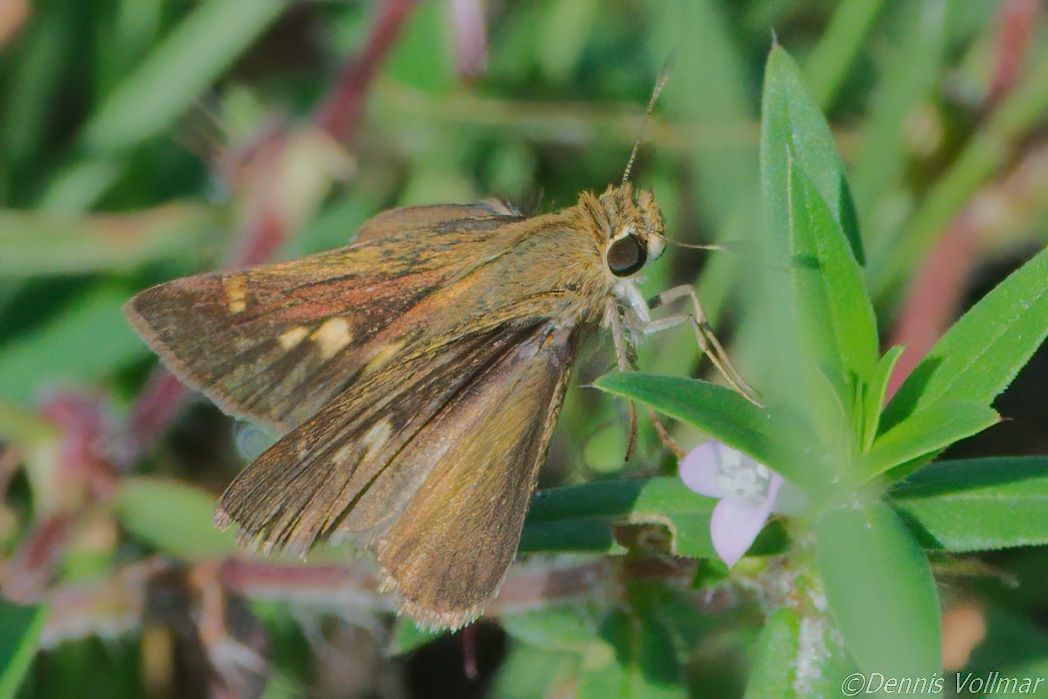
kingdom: Animalia
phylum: Arthropoda
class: Insecta
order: Lepidoptera
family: Hesperiidae
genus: Polites
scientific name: Polites vibex
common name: Whirlabout
